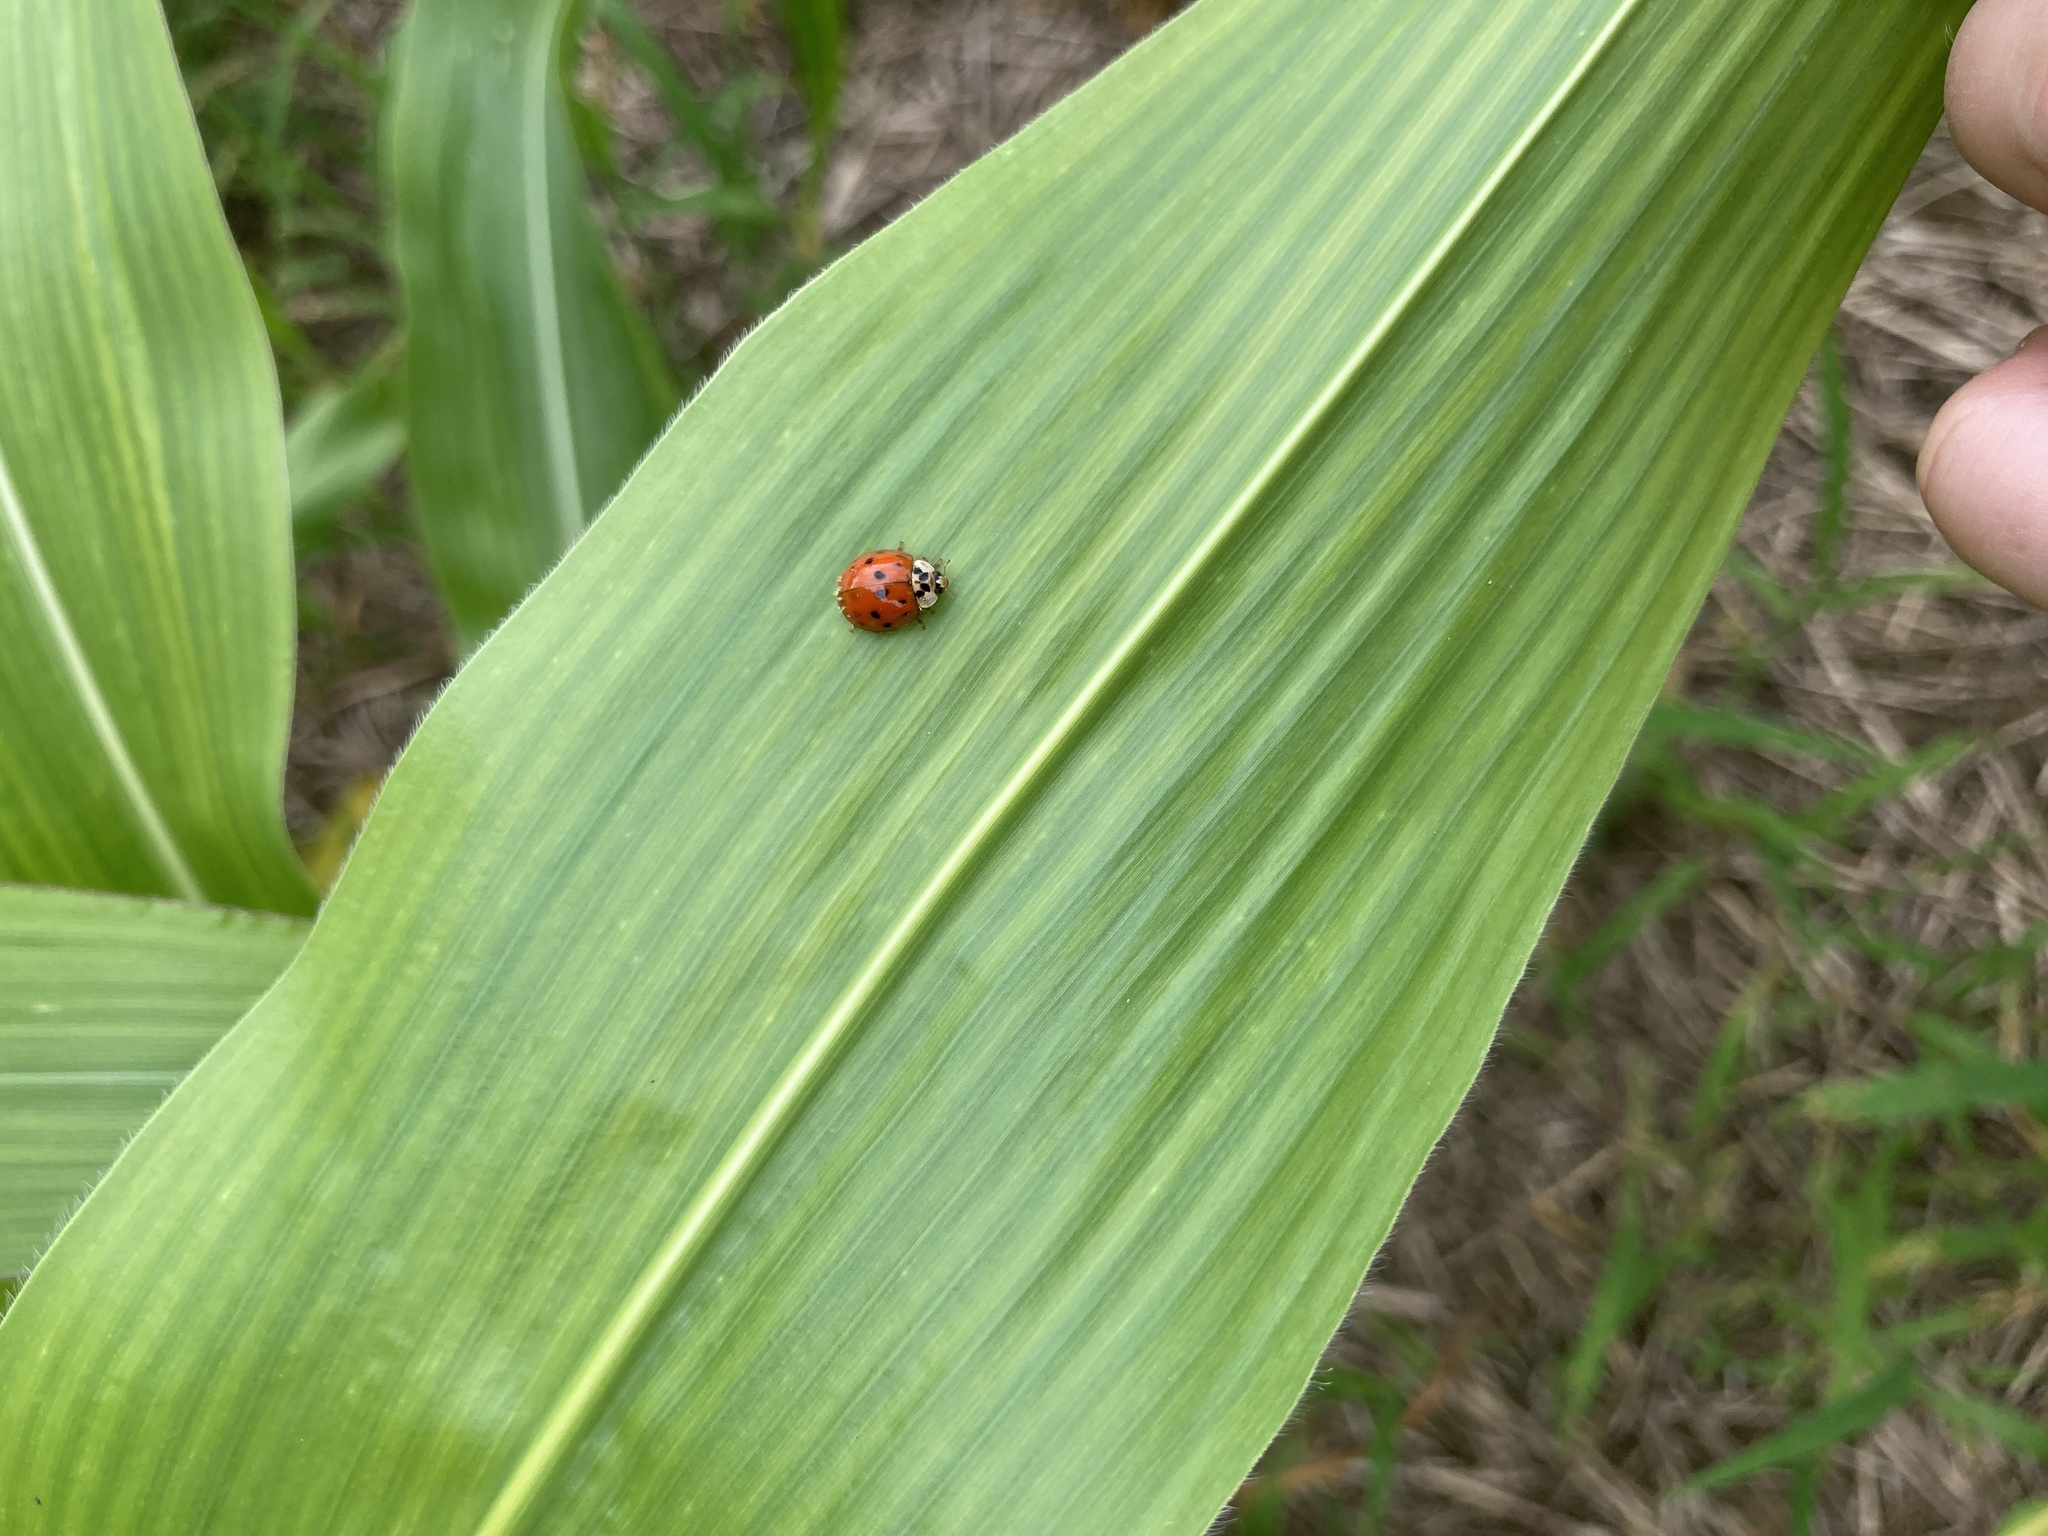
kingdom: Animalia
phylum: Arthropoda
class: Insecta
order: Coleoptera
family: Coccinellidae
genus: Harmonia
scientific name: Harmonia axyridis
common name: Harlequin ladybird
